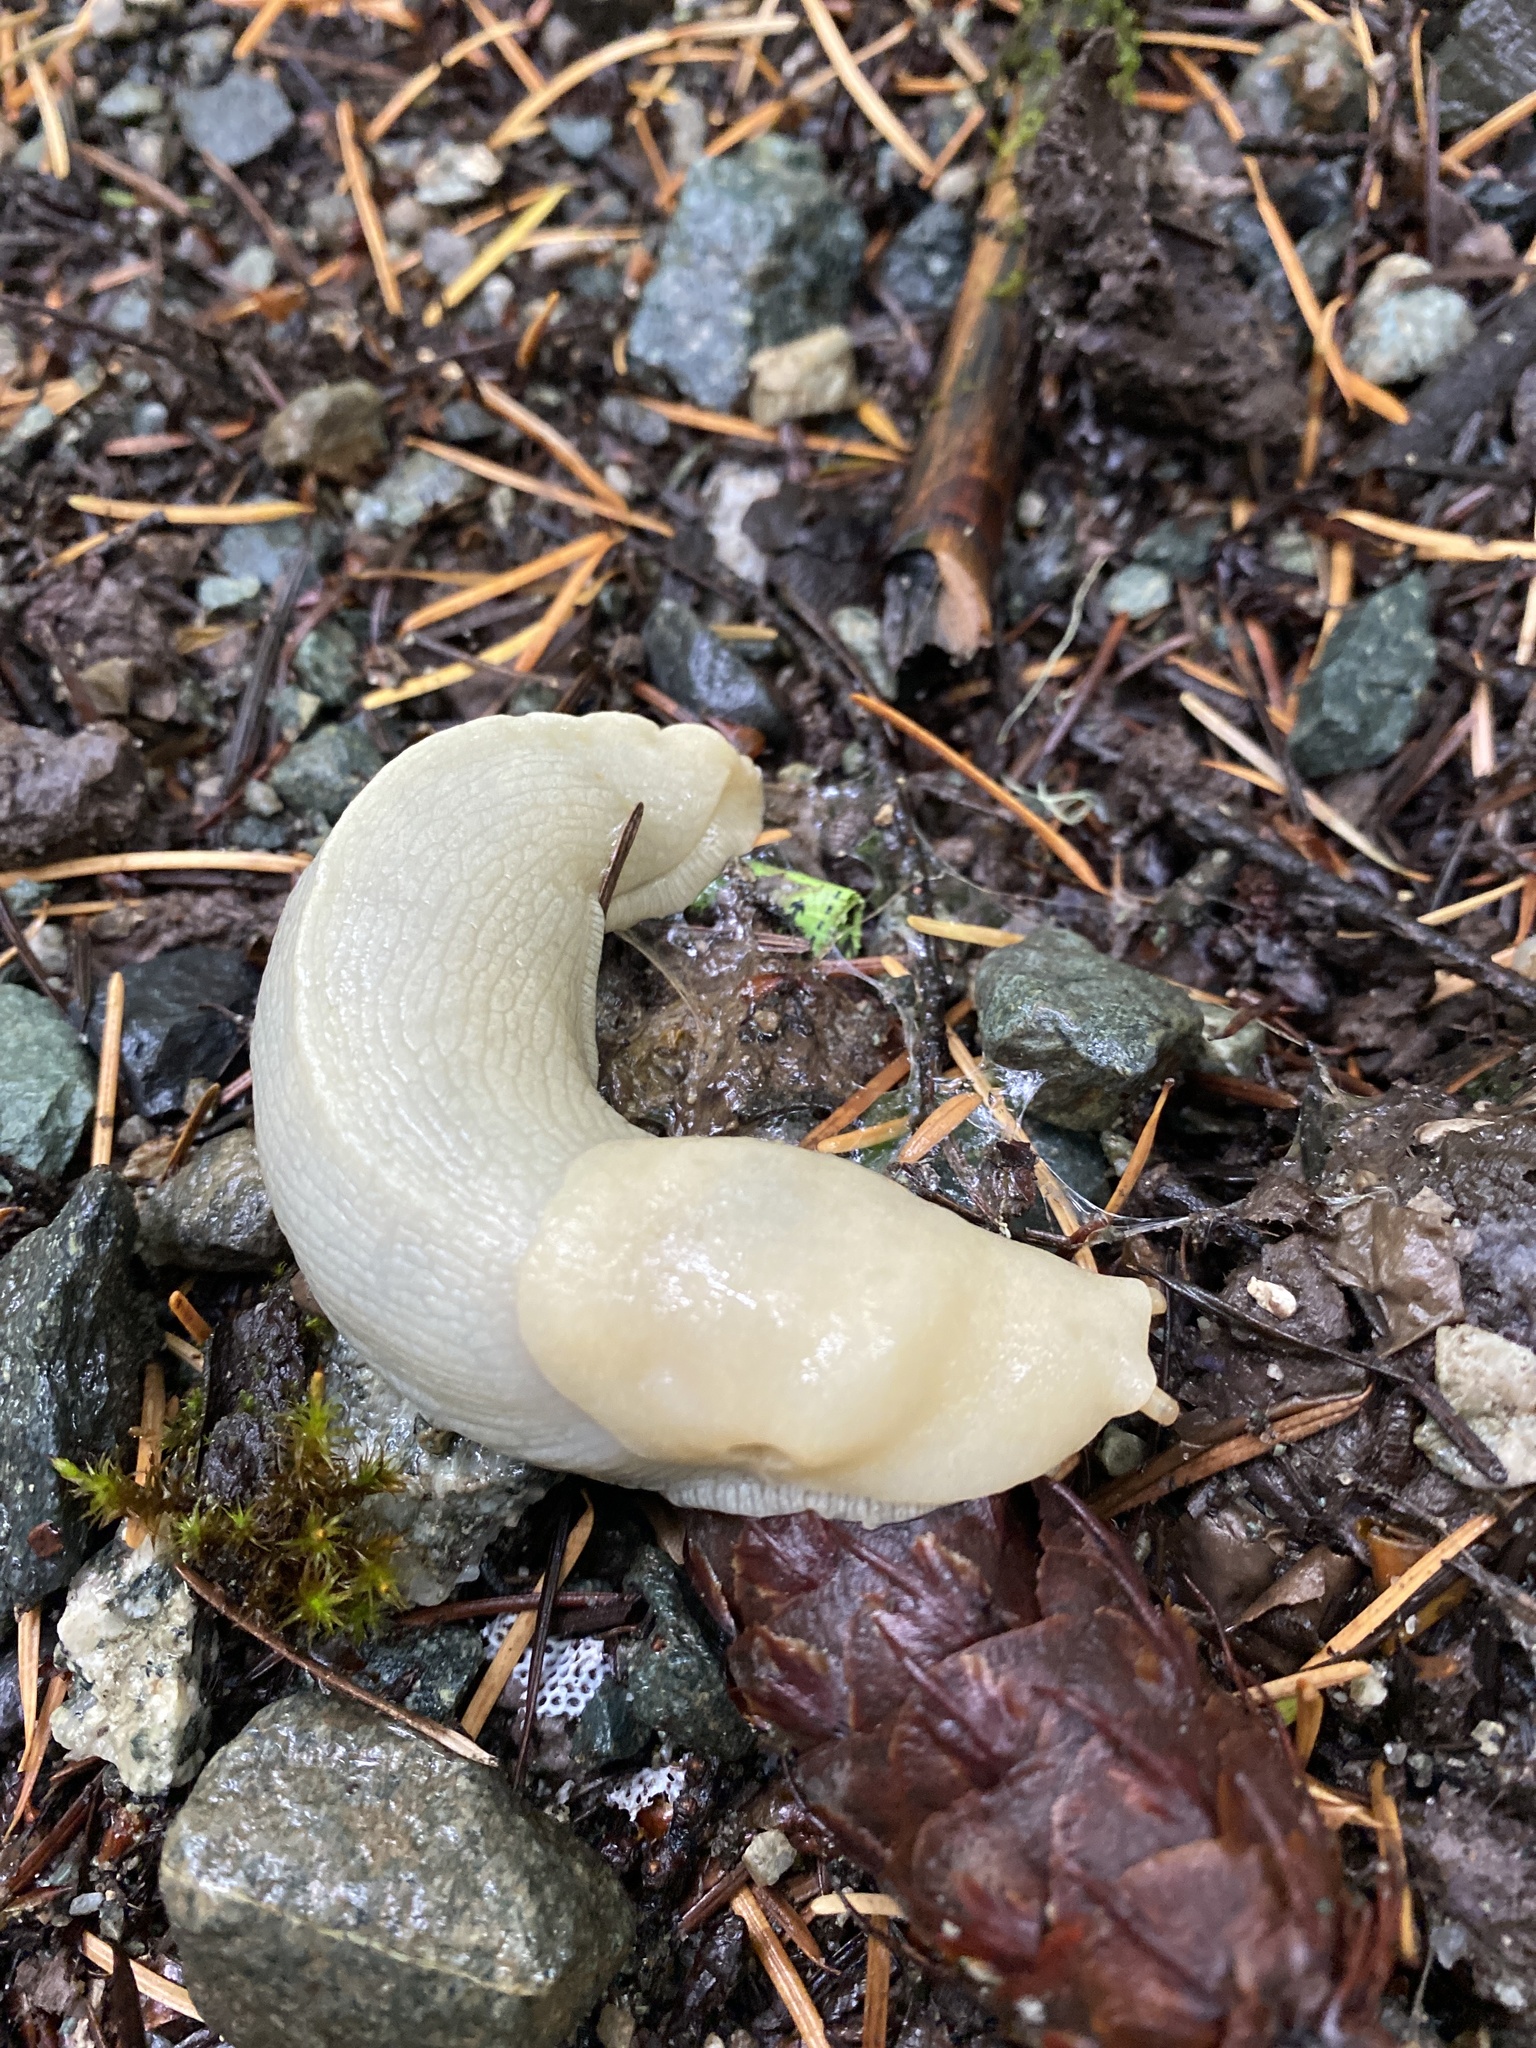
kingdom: Animalia
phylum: Mollusca
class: Gastropoda
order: Stylommatophora
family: Ariolimacidae
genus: Ariolimax
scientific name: Ariolimax columbianus
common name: Pacific banana slug
